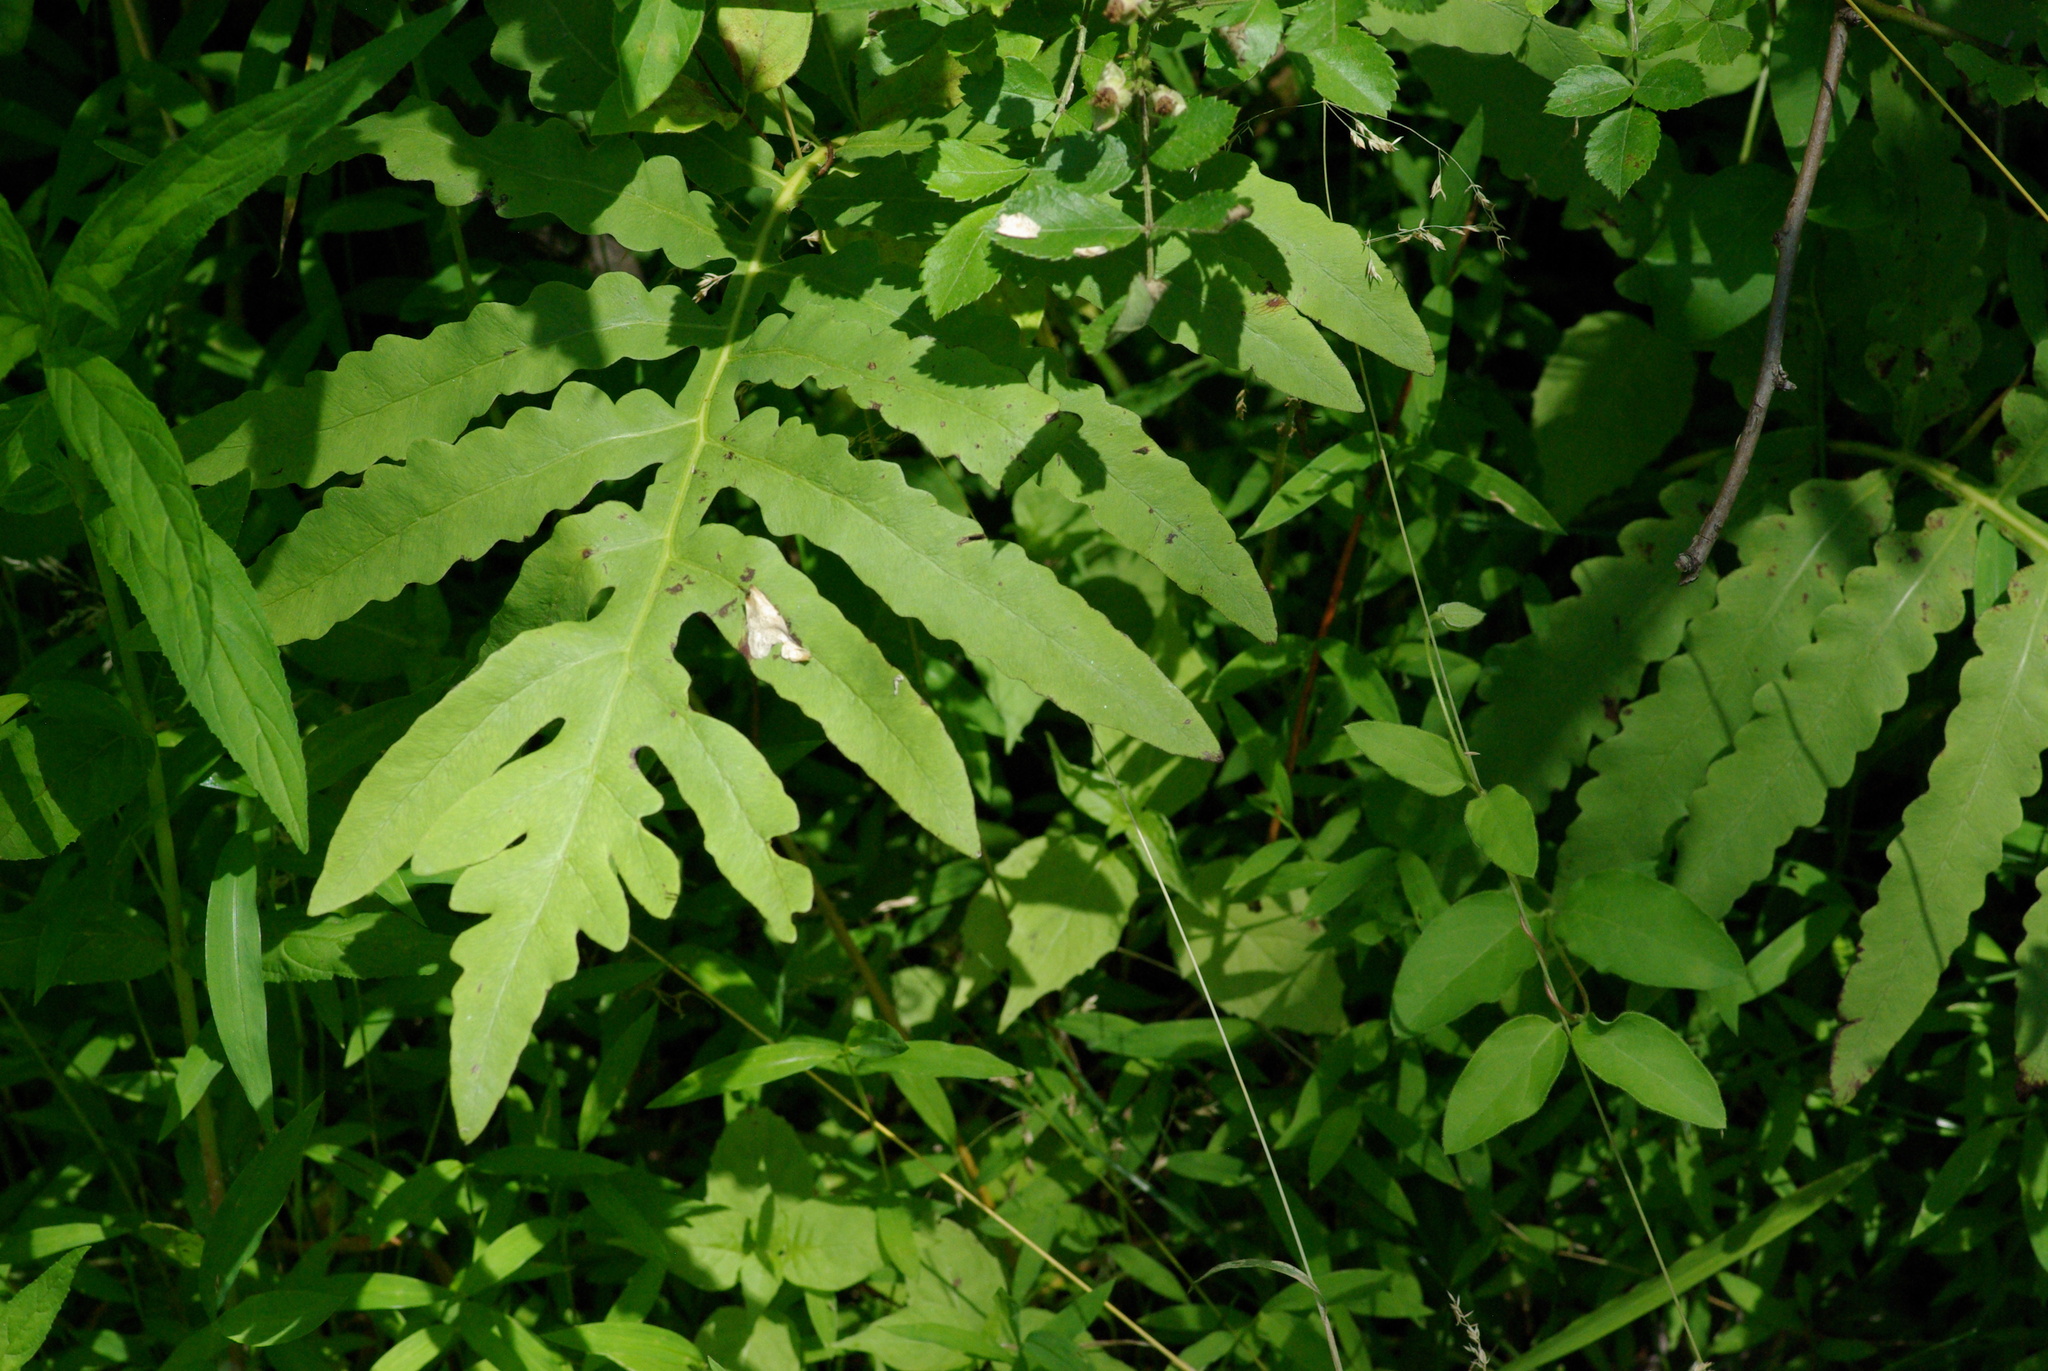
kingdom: Plantae
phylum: Tracheophyta
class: Polypodiopsida
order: Polypodiales
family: Onocleaceae
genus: Onoclea
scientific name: Onoclea sensibilis
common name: Sensitive fern
